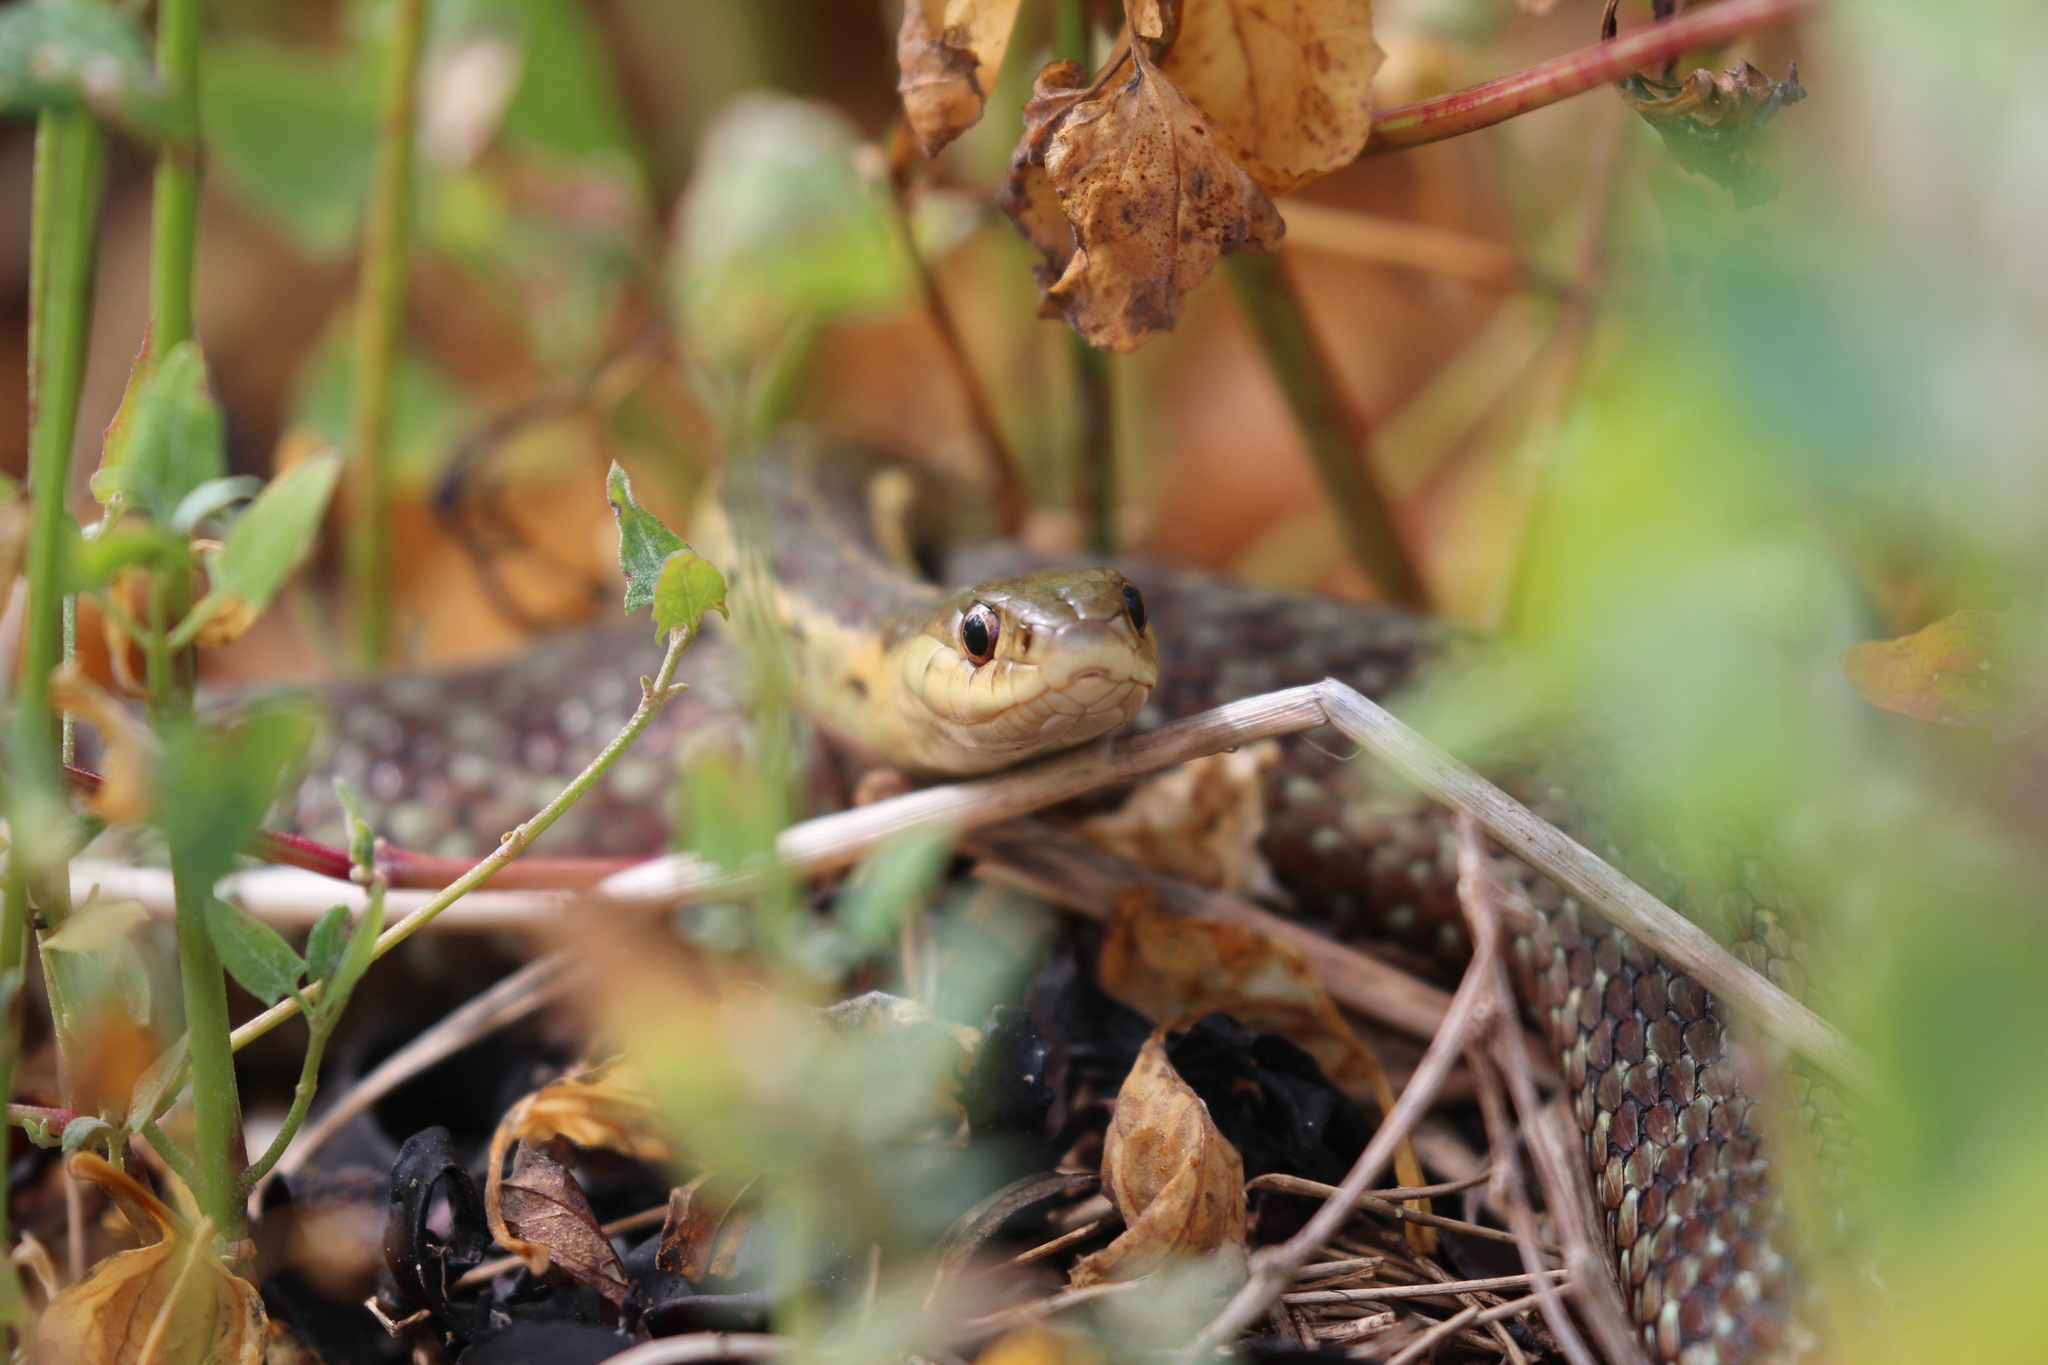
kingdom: Animalia
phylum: Chordata
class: Squamata
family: Colubridae
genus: Thamnophis
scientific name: Thamnophis sirtalis
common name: Common garter snake
